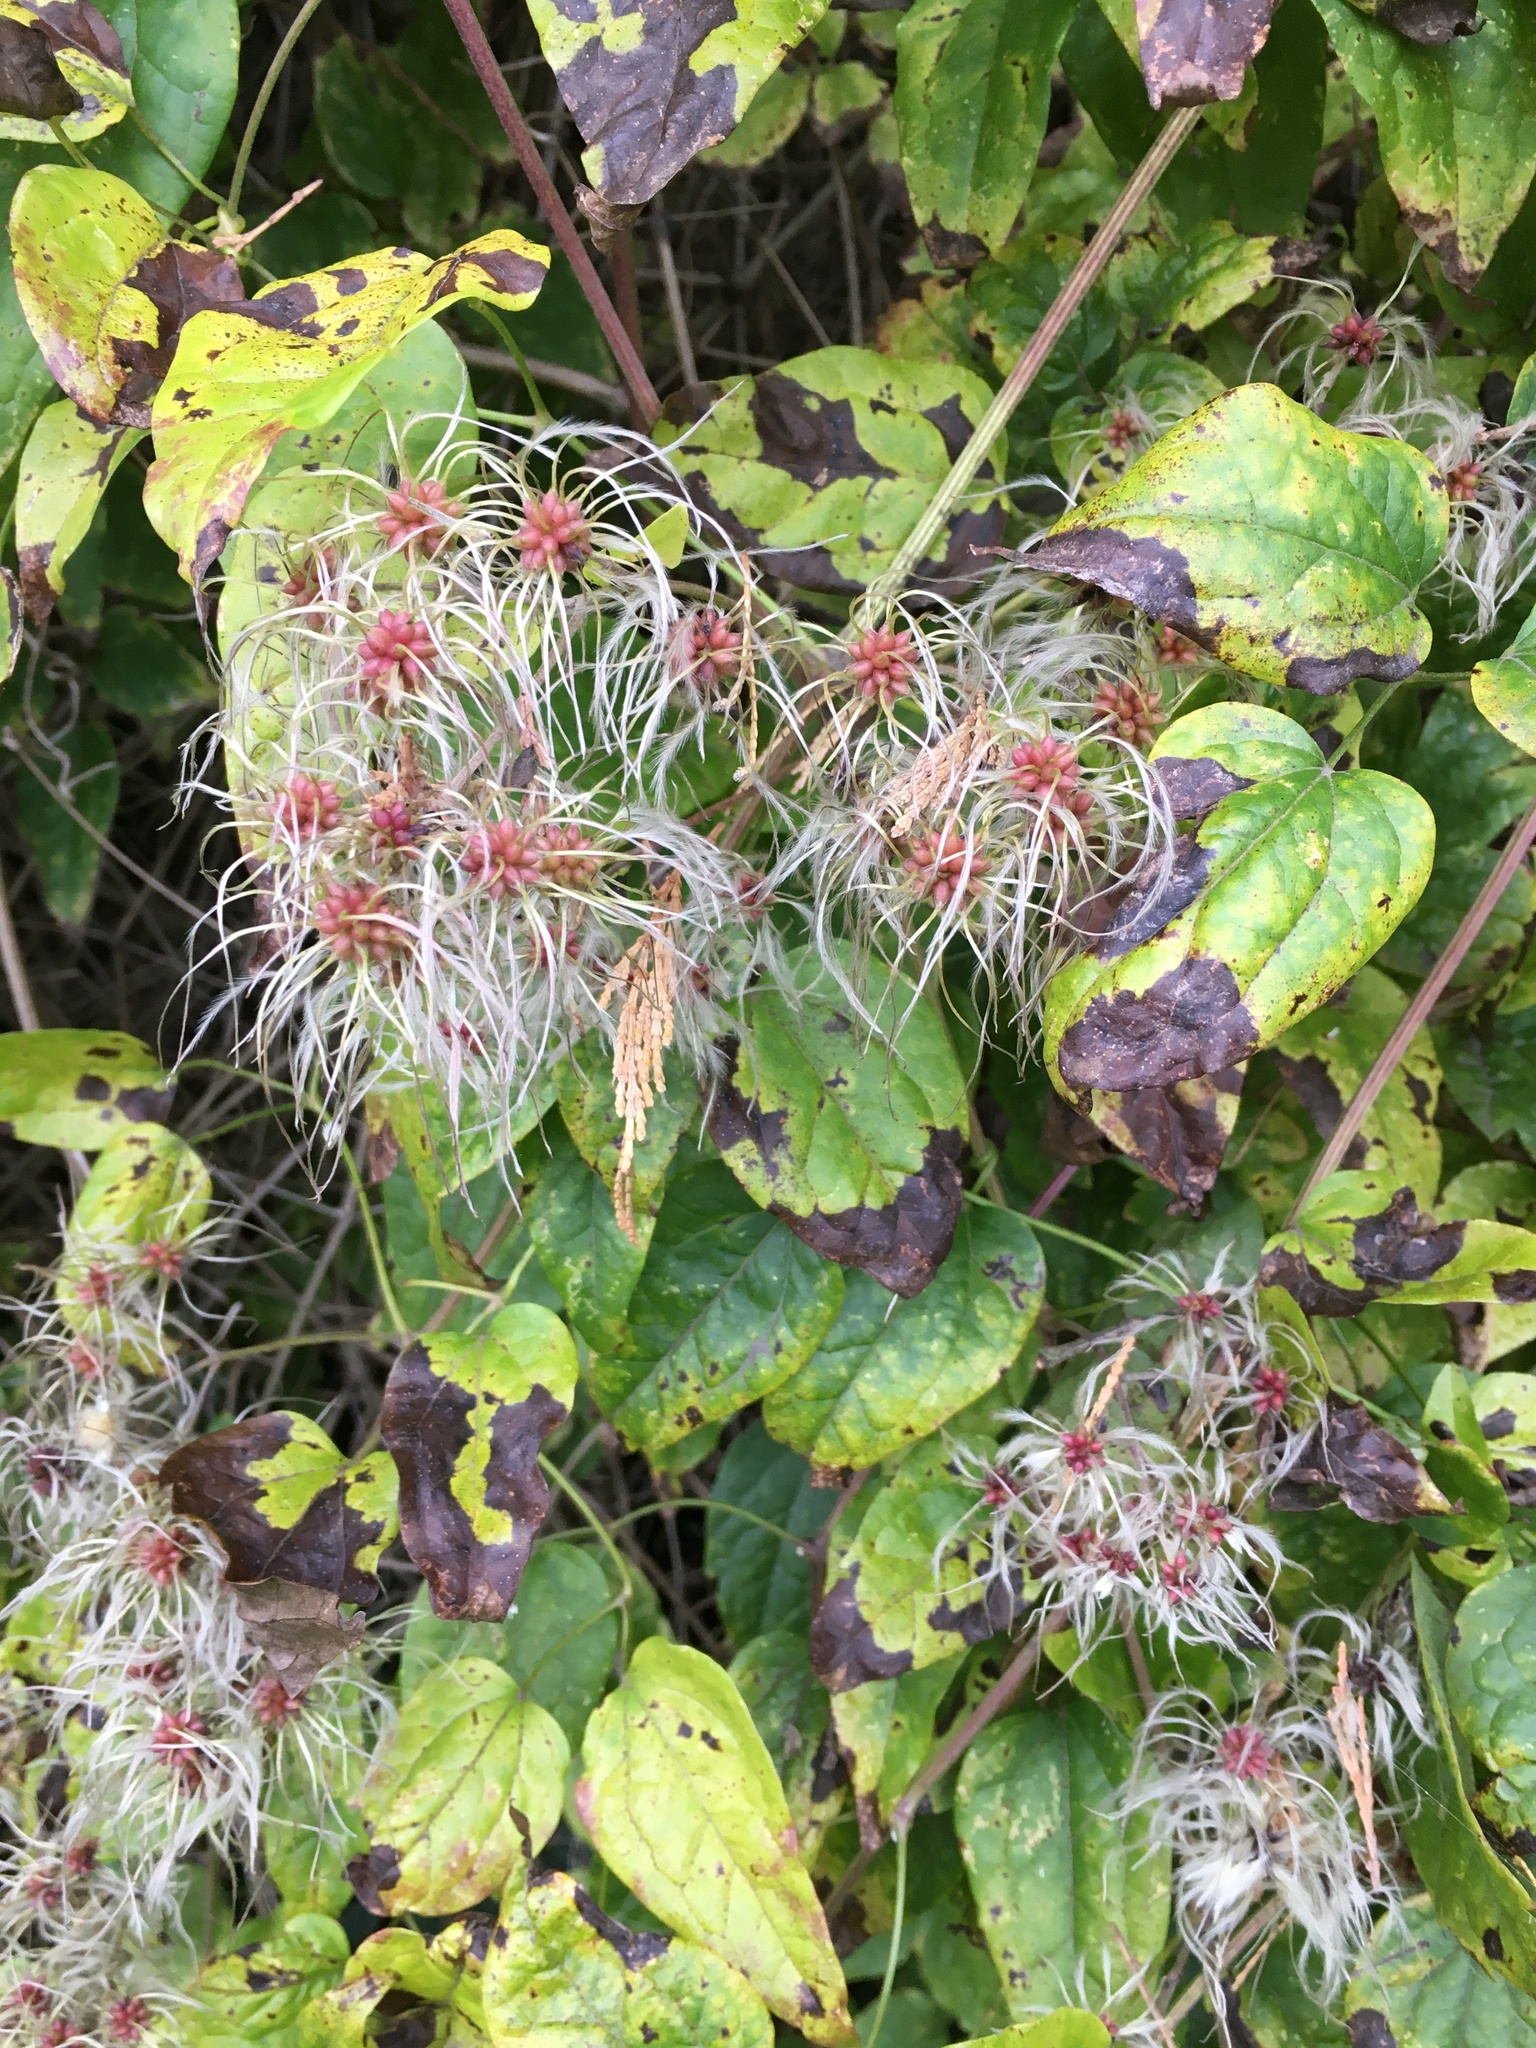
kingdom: Plantae
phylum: Tracheophyta
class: Magnoliopsida
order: Ranunculales
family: Ranunculaceae
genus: Clematis
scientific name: Clematis vitalba
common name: Evergreen clematis
